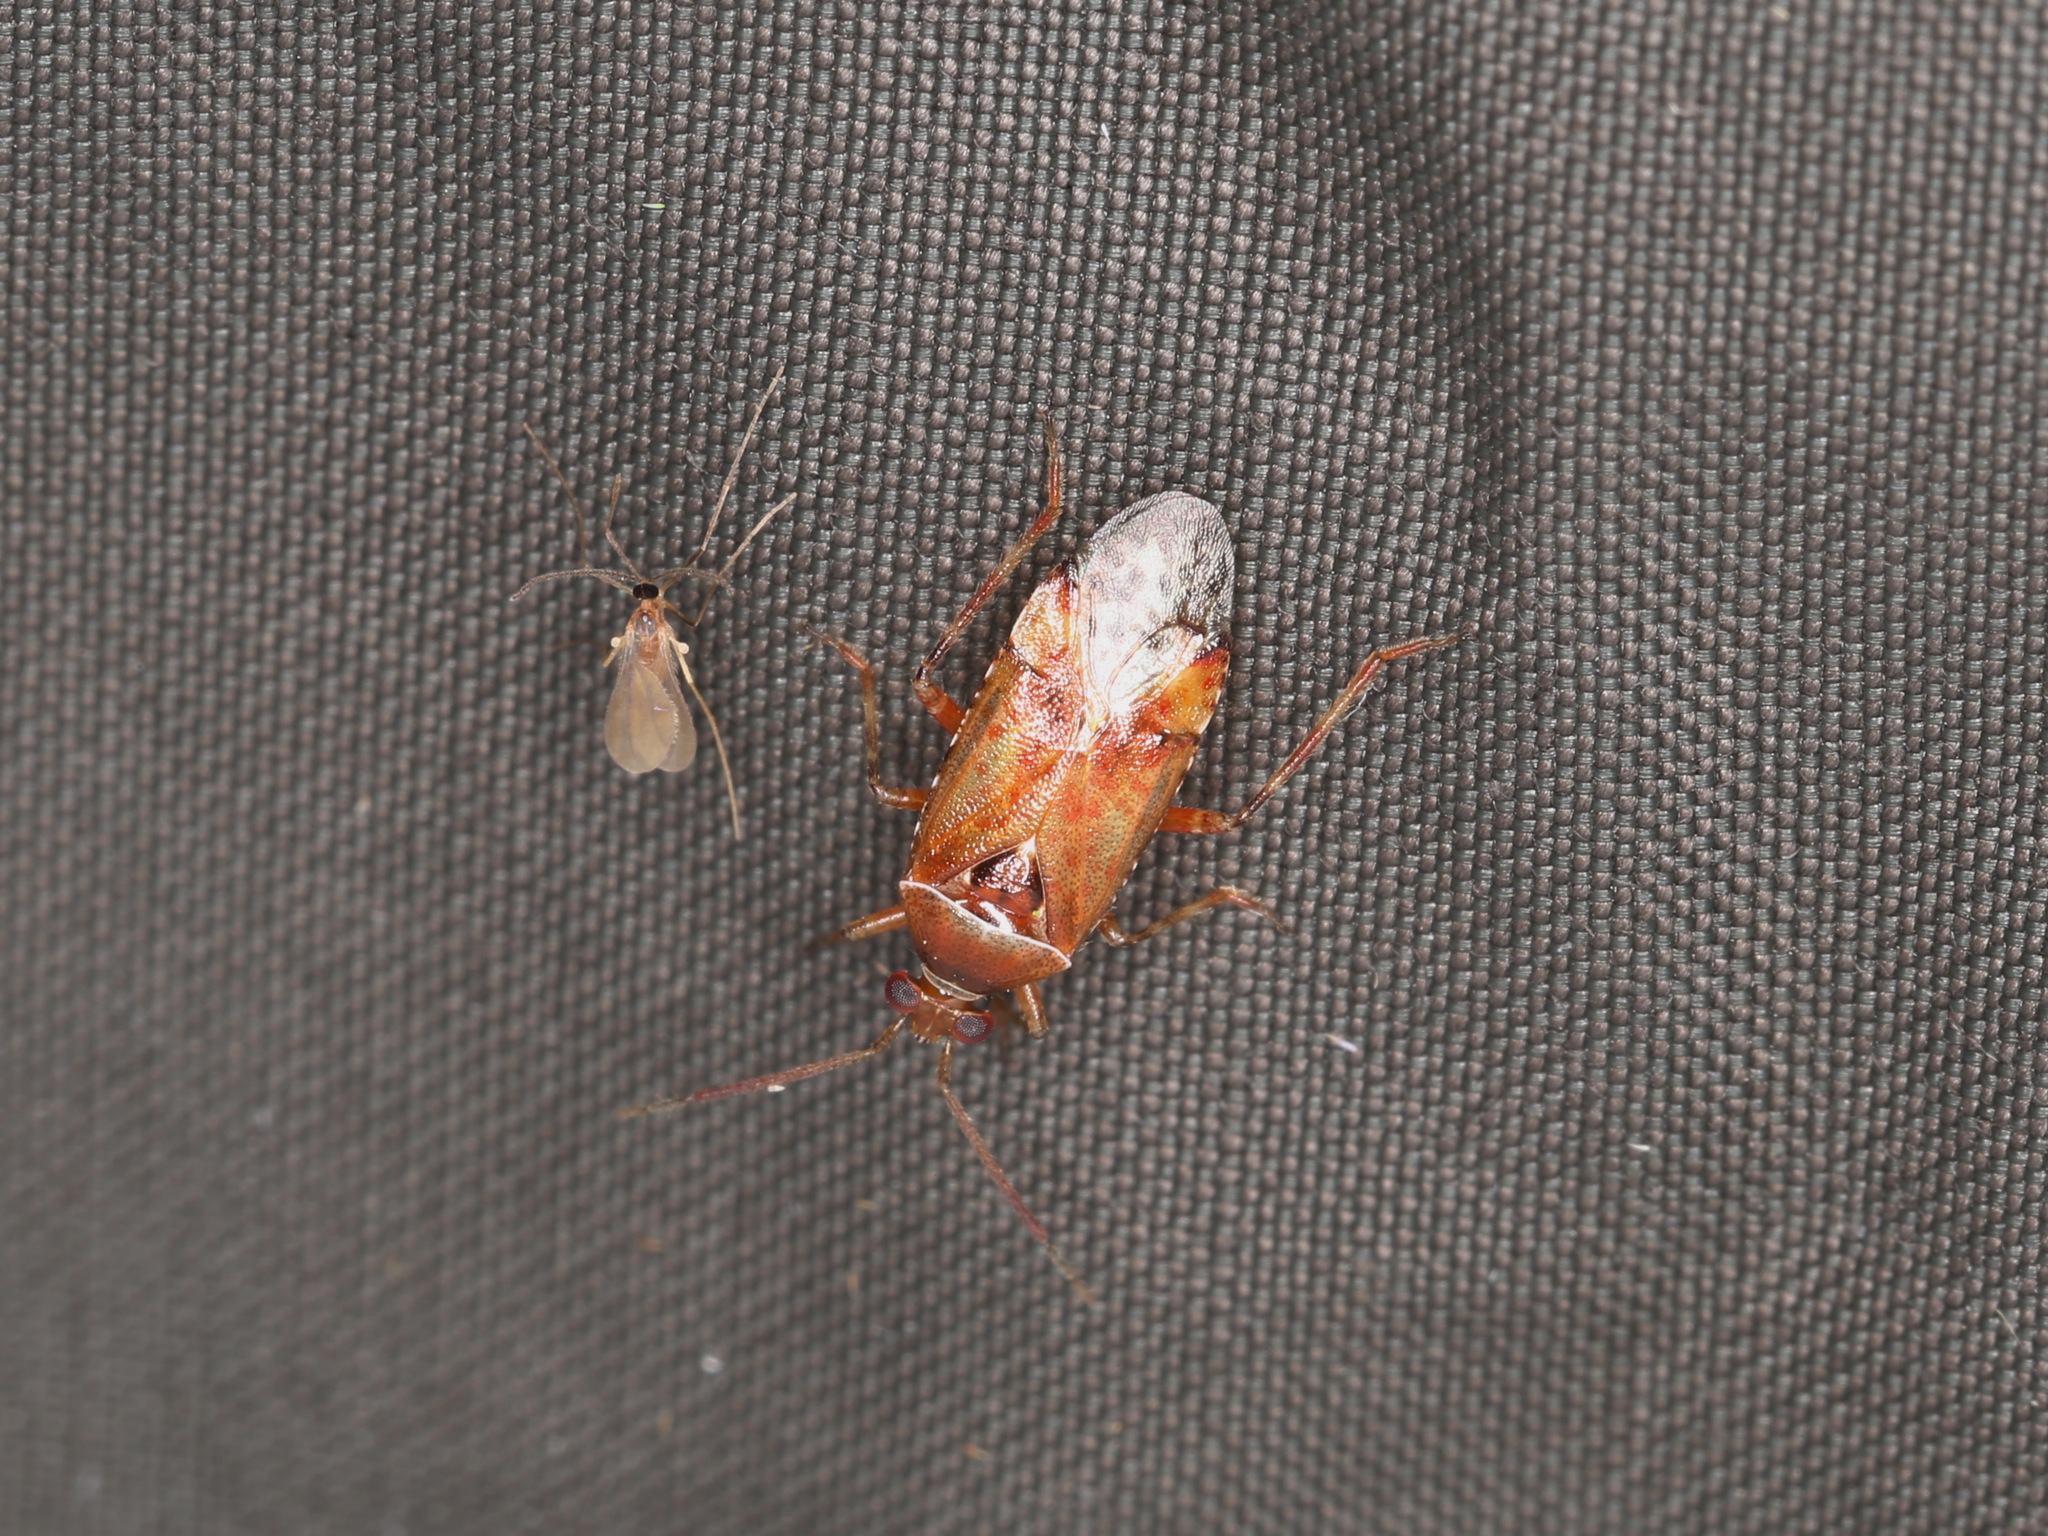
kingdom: Animalia
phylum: Arthropoda
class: Insecta
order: Hemiptera
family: Miridae
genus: Alloeotomus
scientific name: Alloeotomus germanicus
